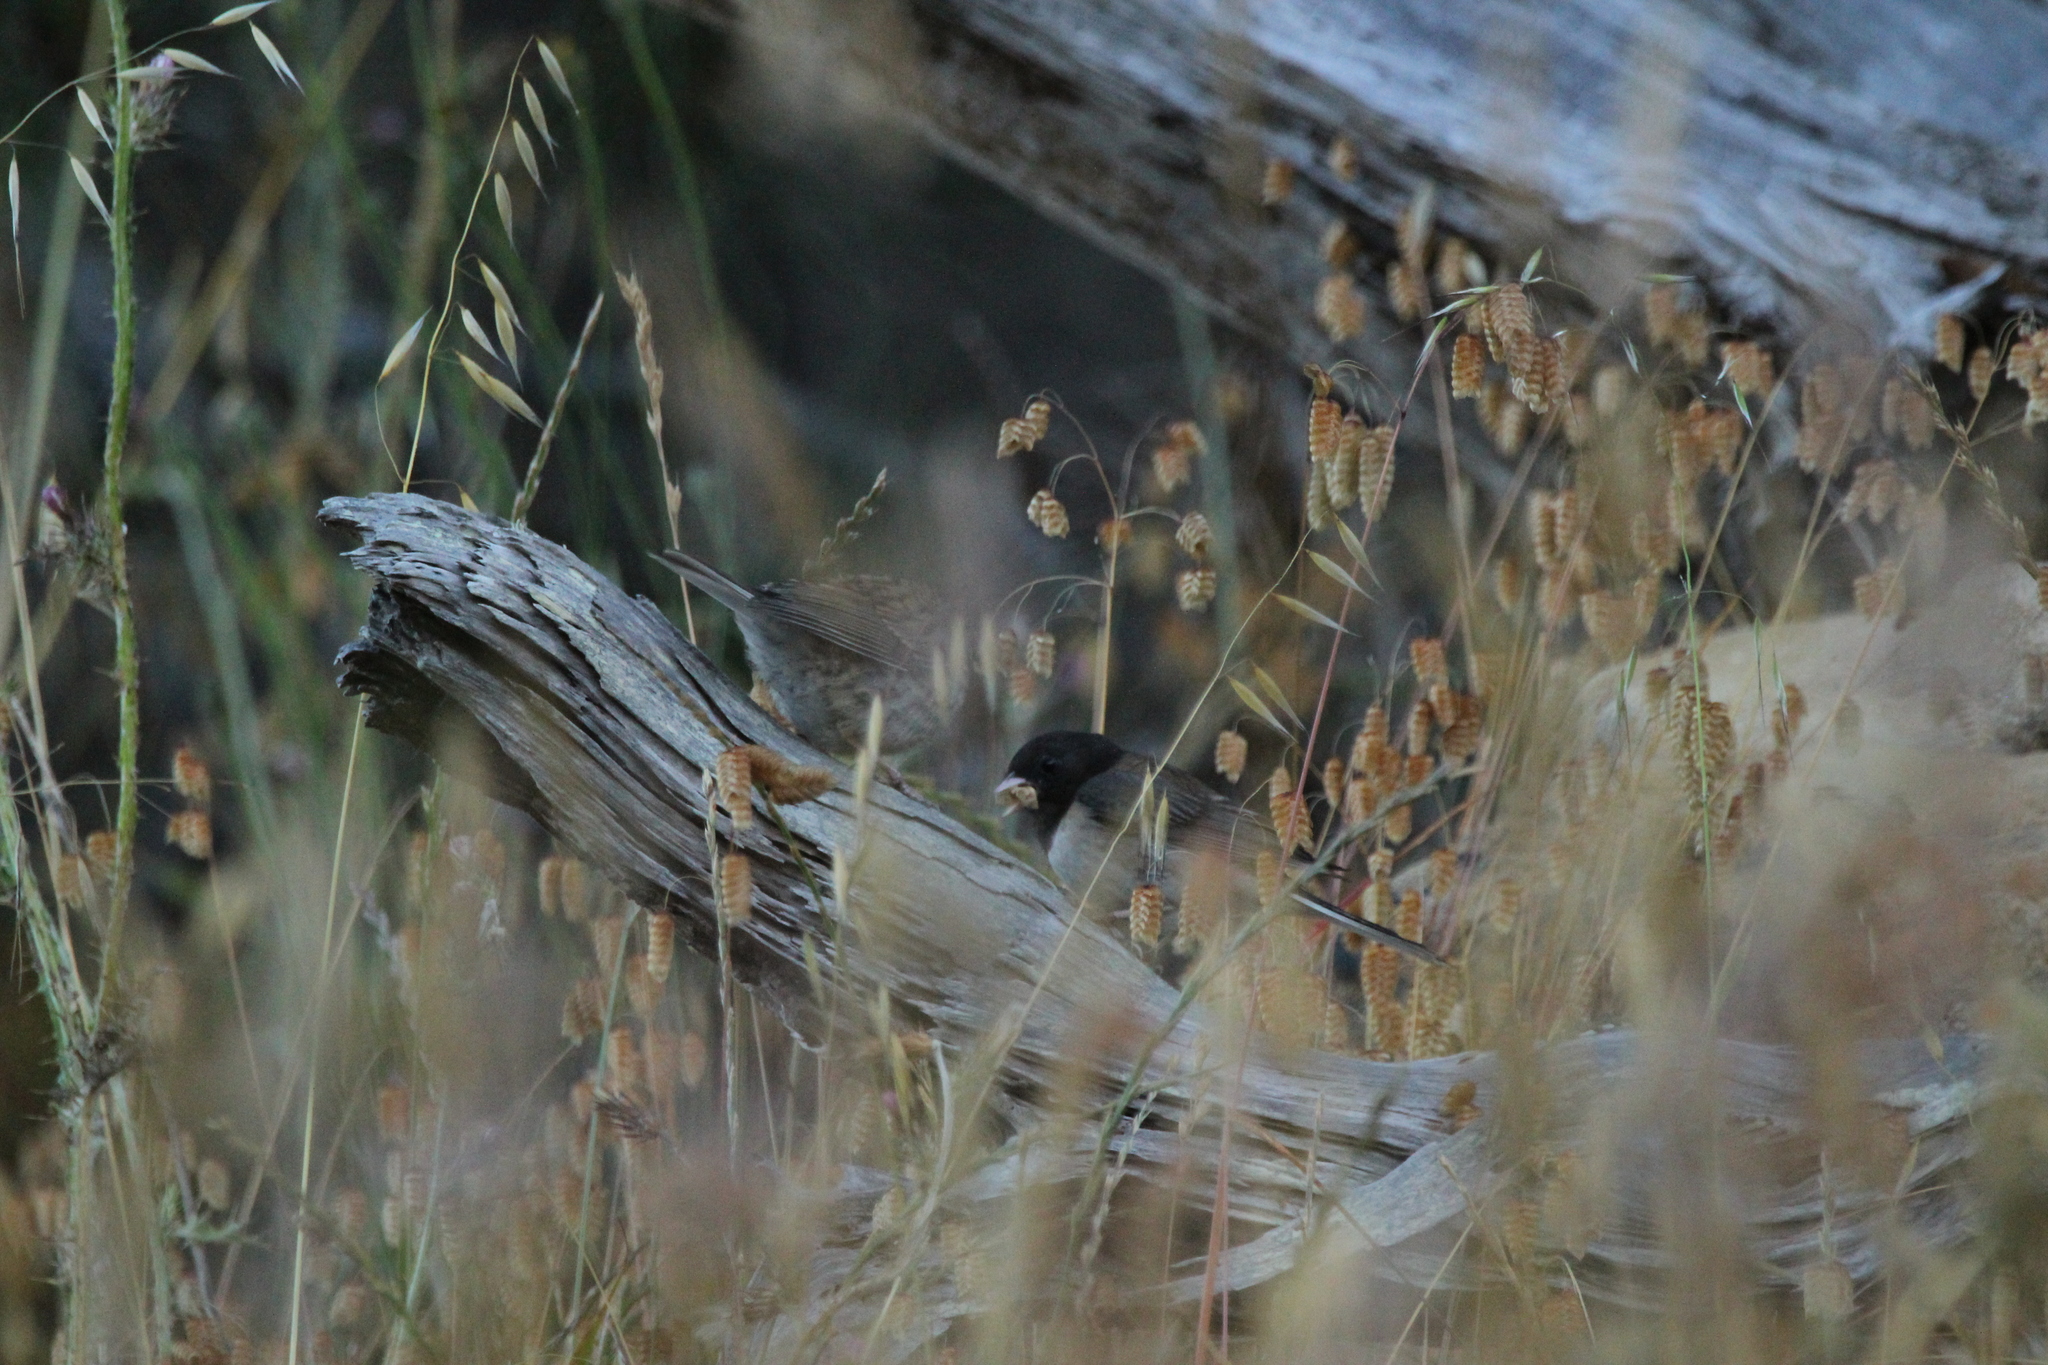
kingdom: Animalia
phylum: Chordata
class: Aves
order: Passeriformes
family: Passerellidae
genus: Junco
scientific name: Junco hyemalis
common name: Dark-eyed junco
